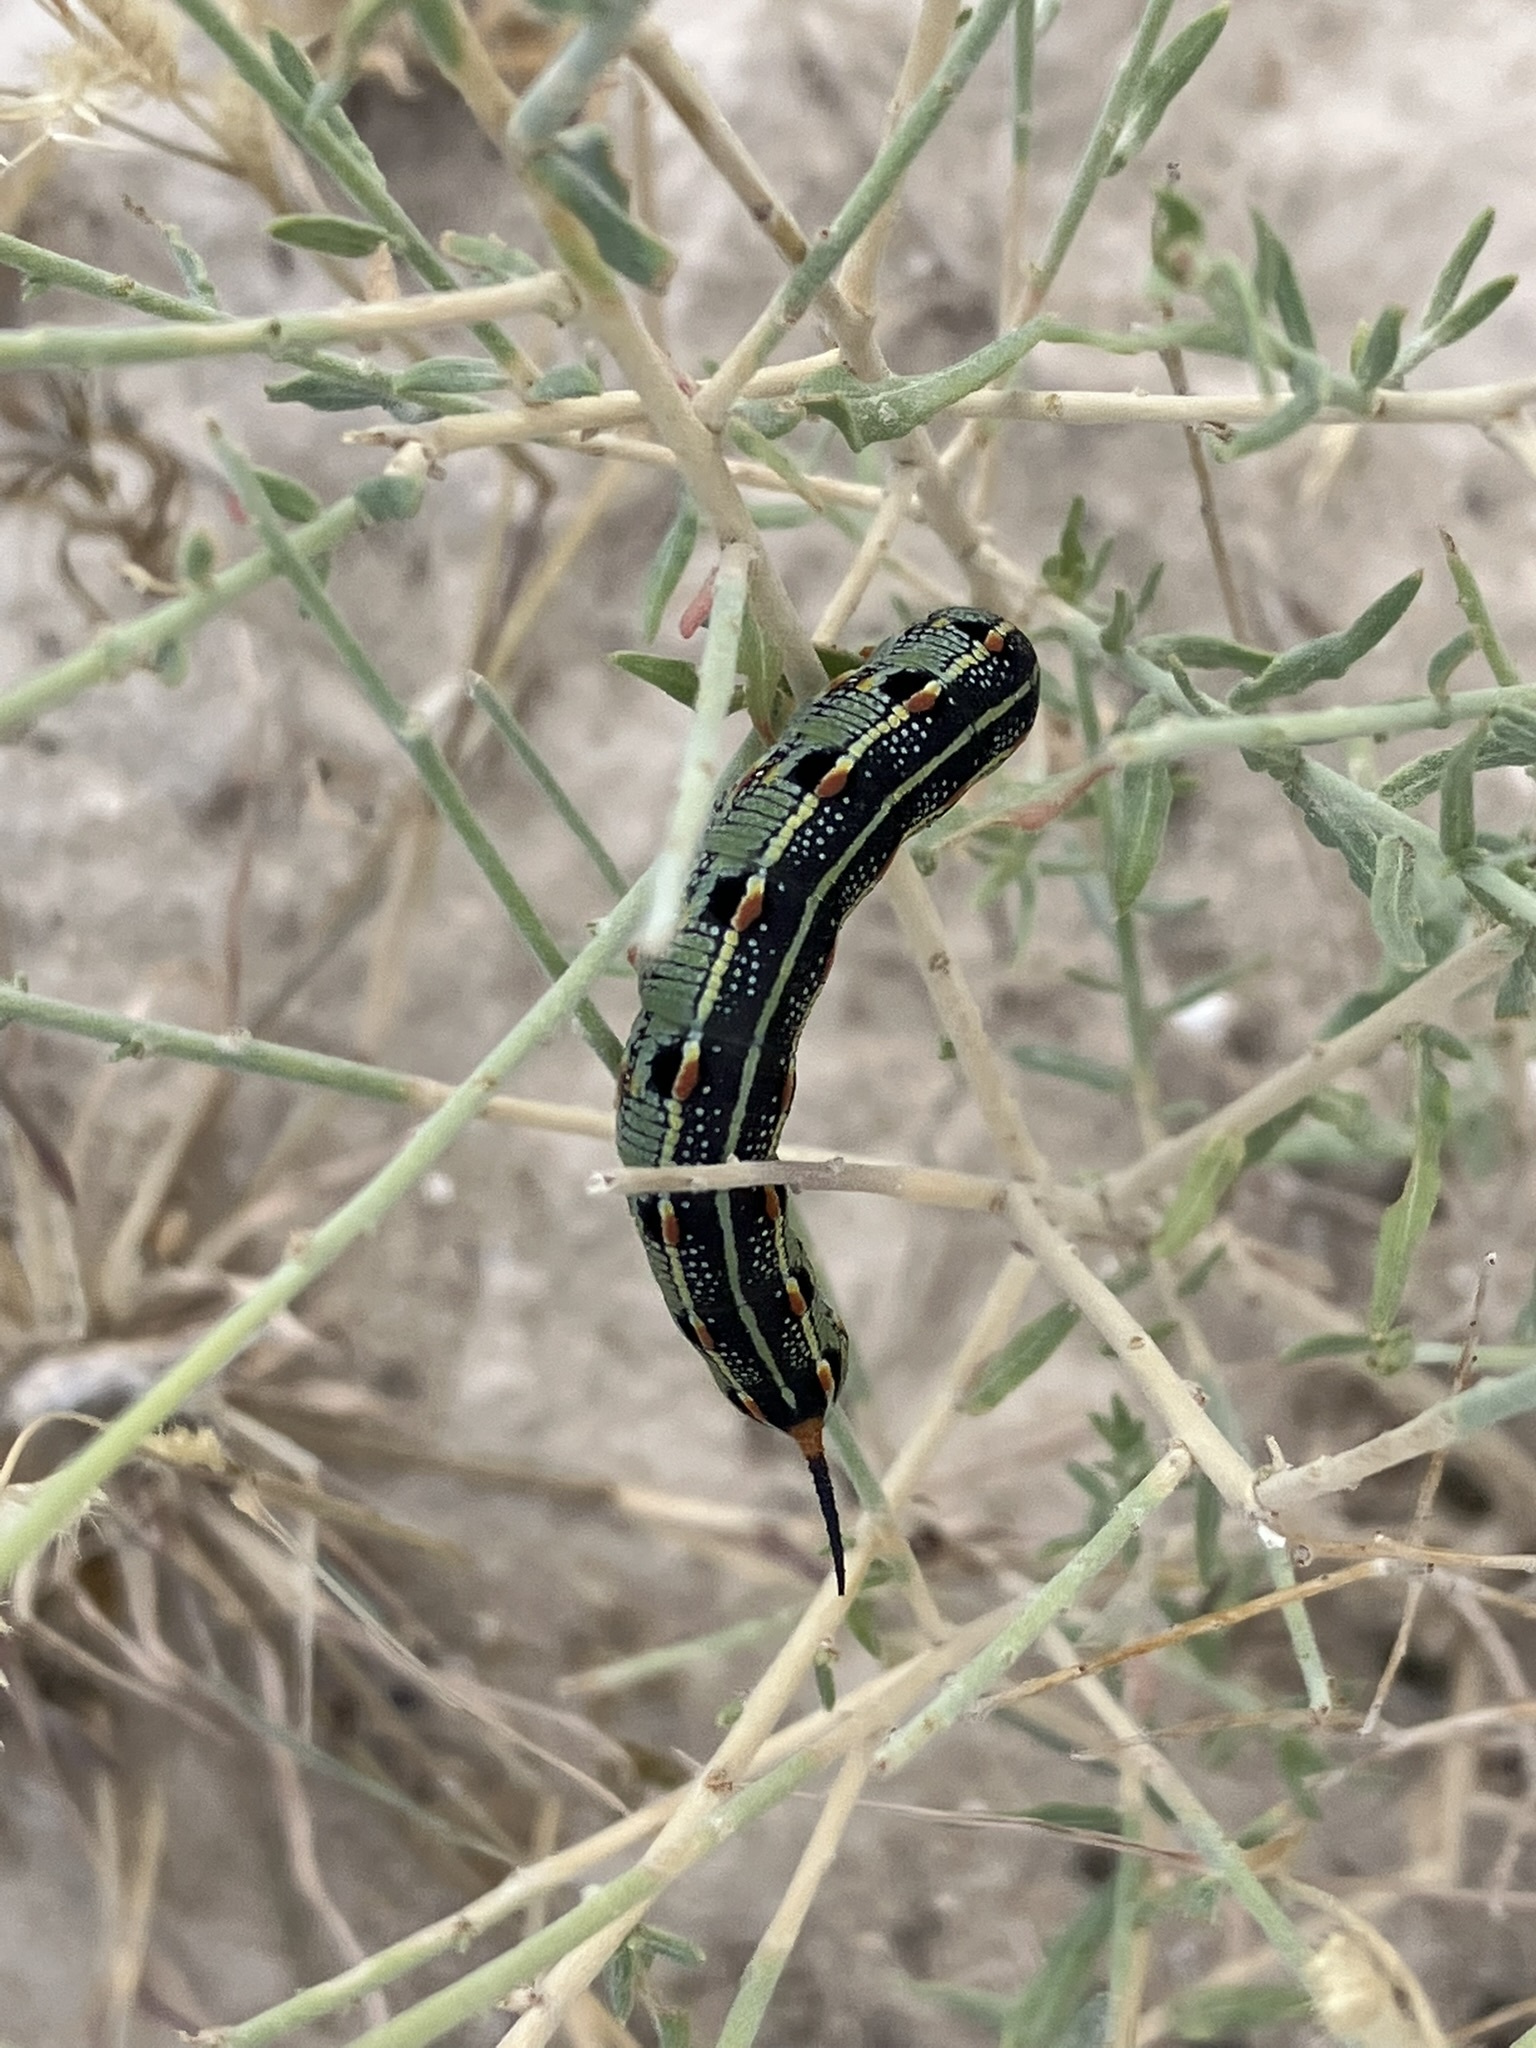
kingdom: Animalia
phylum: Arthropoda
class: Insecta
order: Lepidoptera
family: Sphingidae
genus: Hyles
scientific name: Hyles lineata
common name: White-lined sphinx
